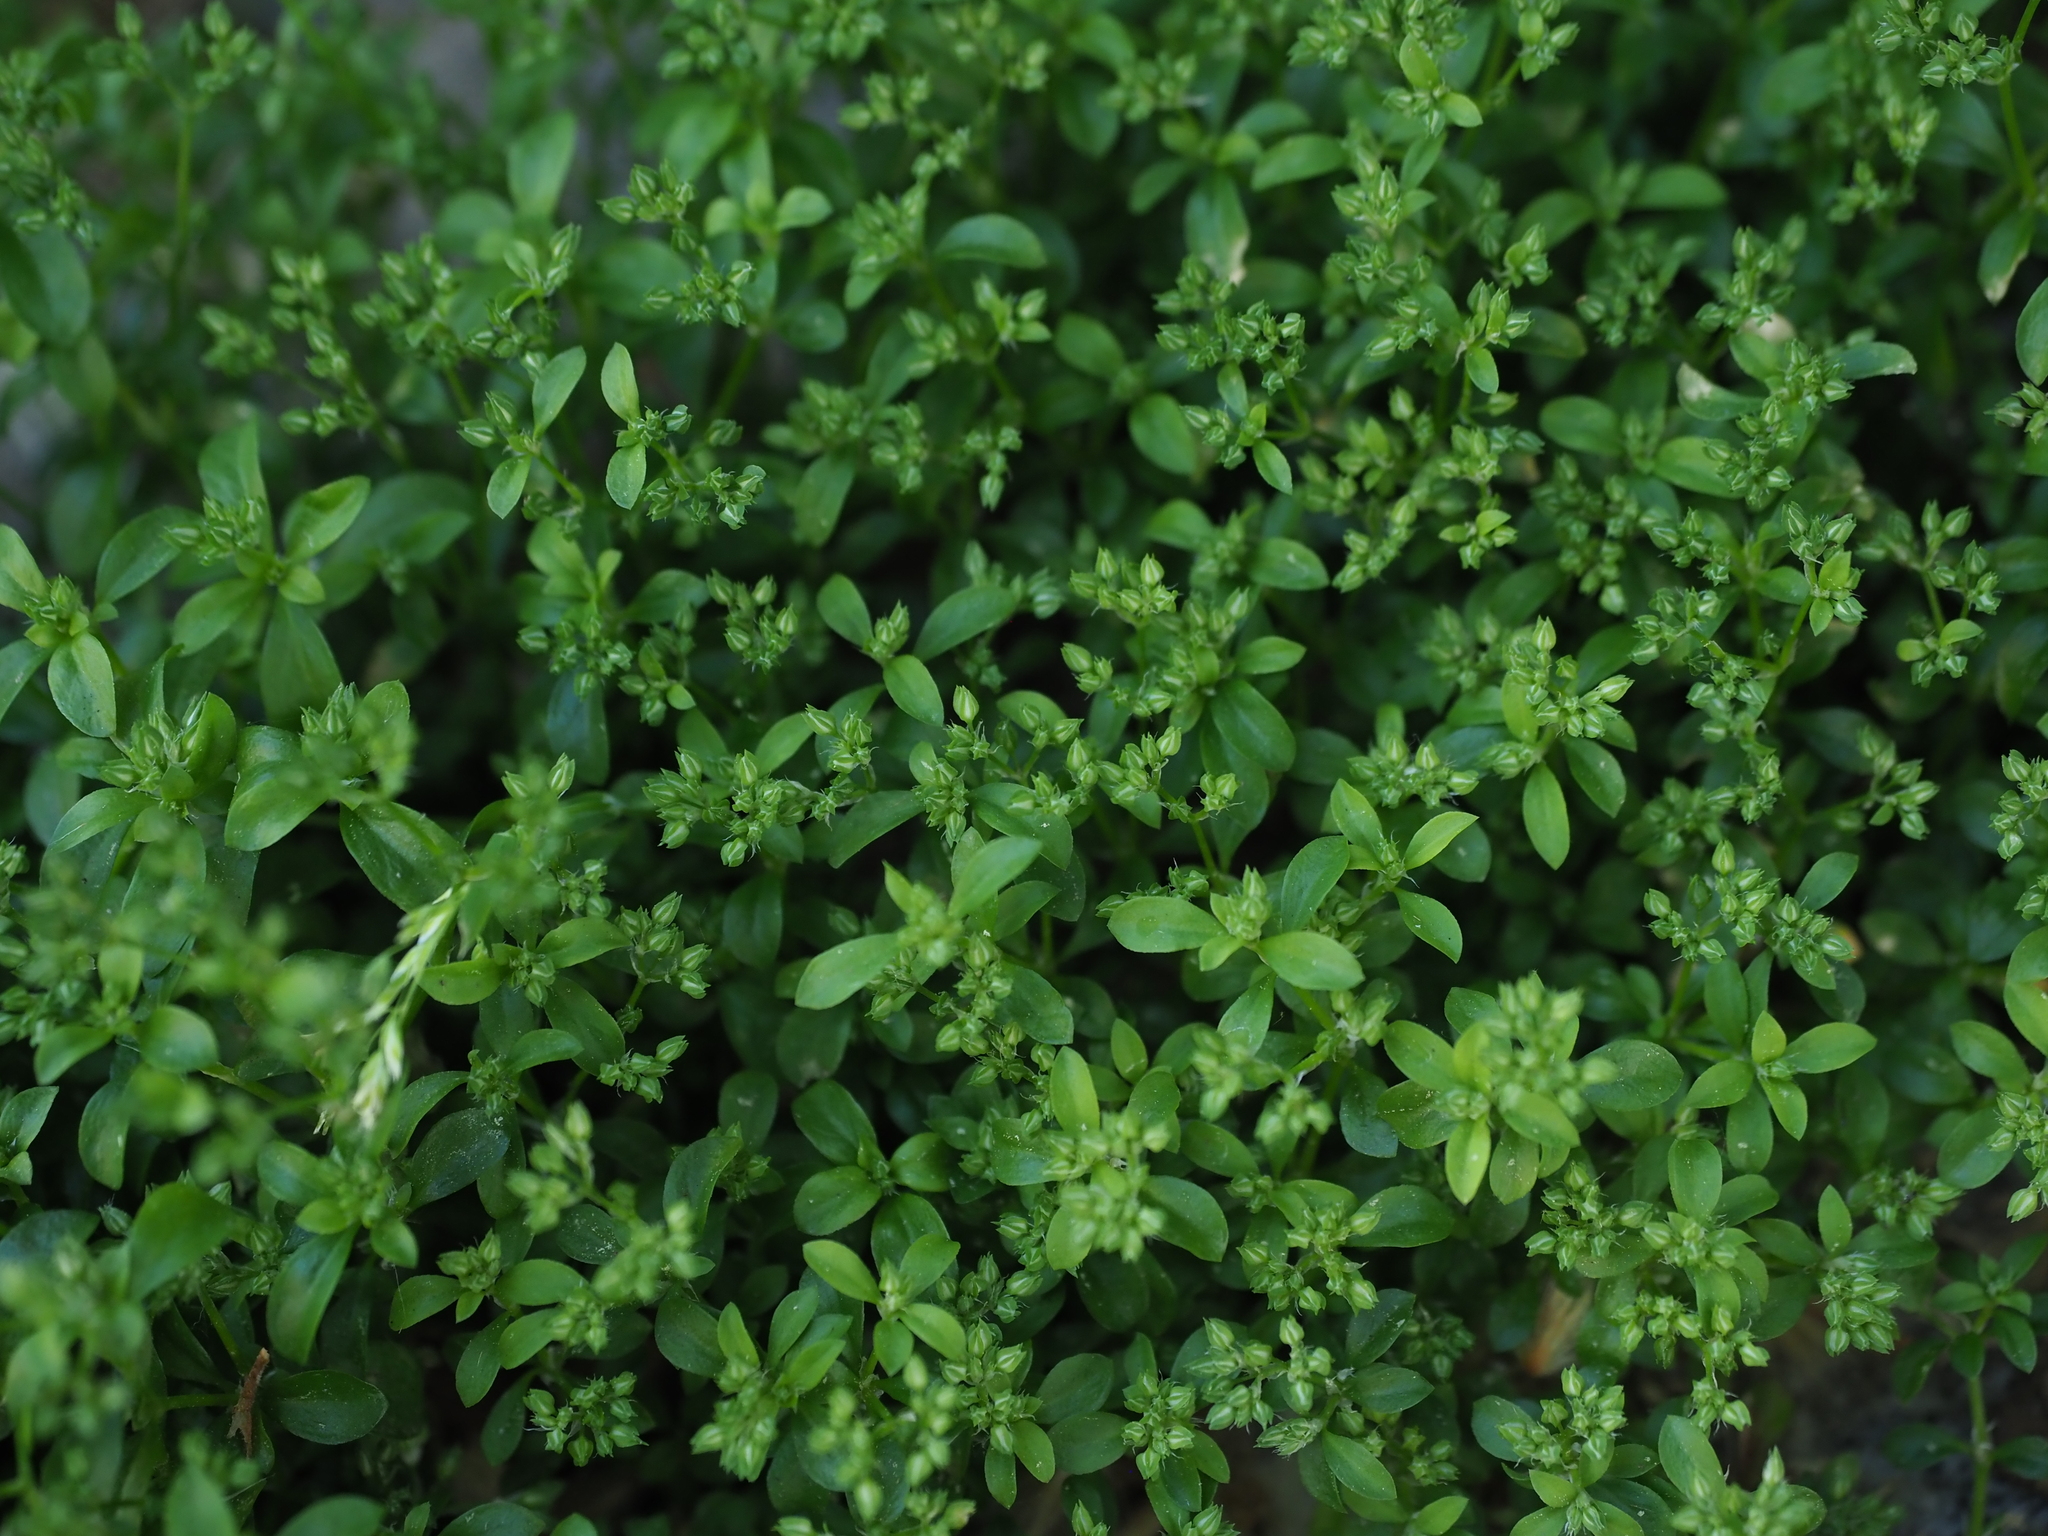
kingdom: Plantae
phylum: Tracheophyta
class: Magnoliopsida
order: Caryophyllales
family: Caryophyllaceae
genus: Polycarpon
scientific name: Polycarpon tetraphyllum
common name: Four-leaved all-seed
